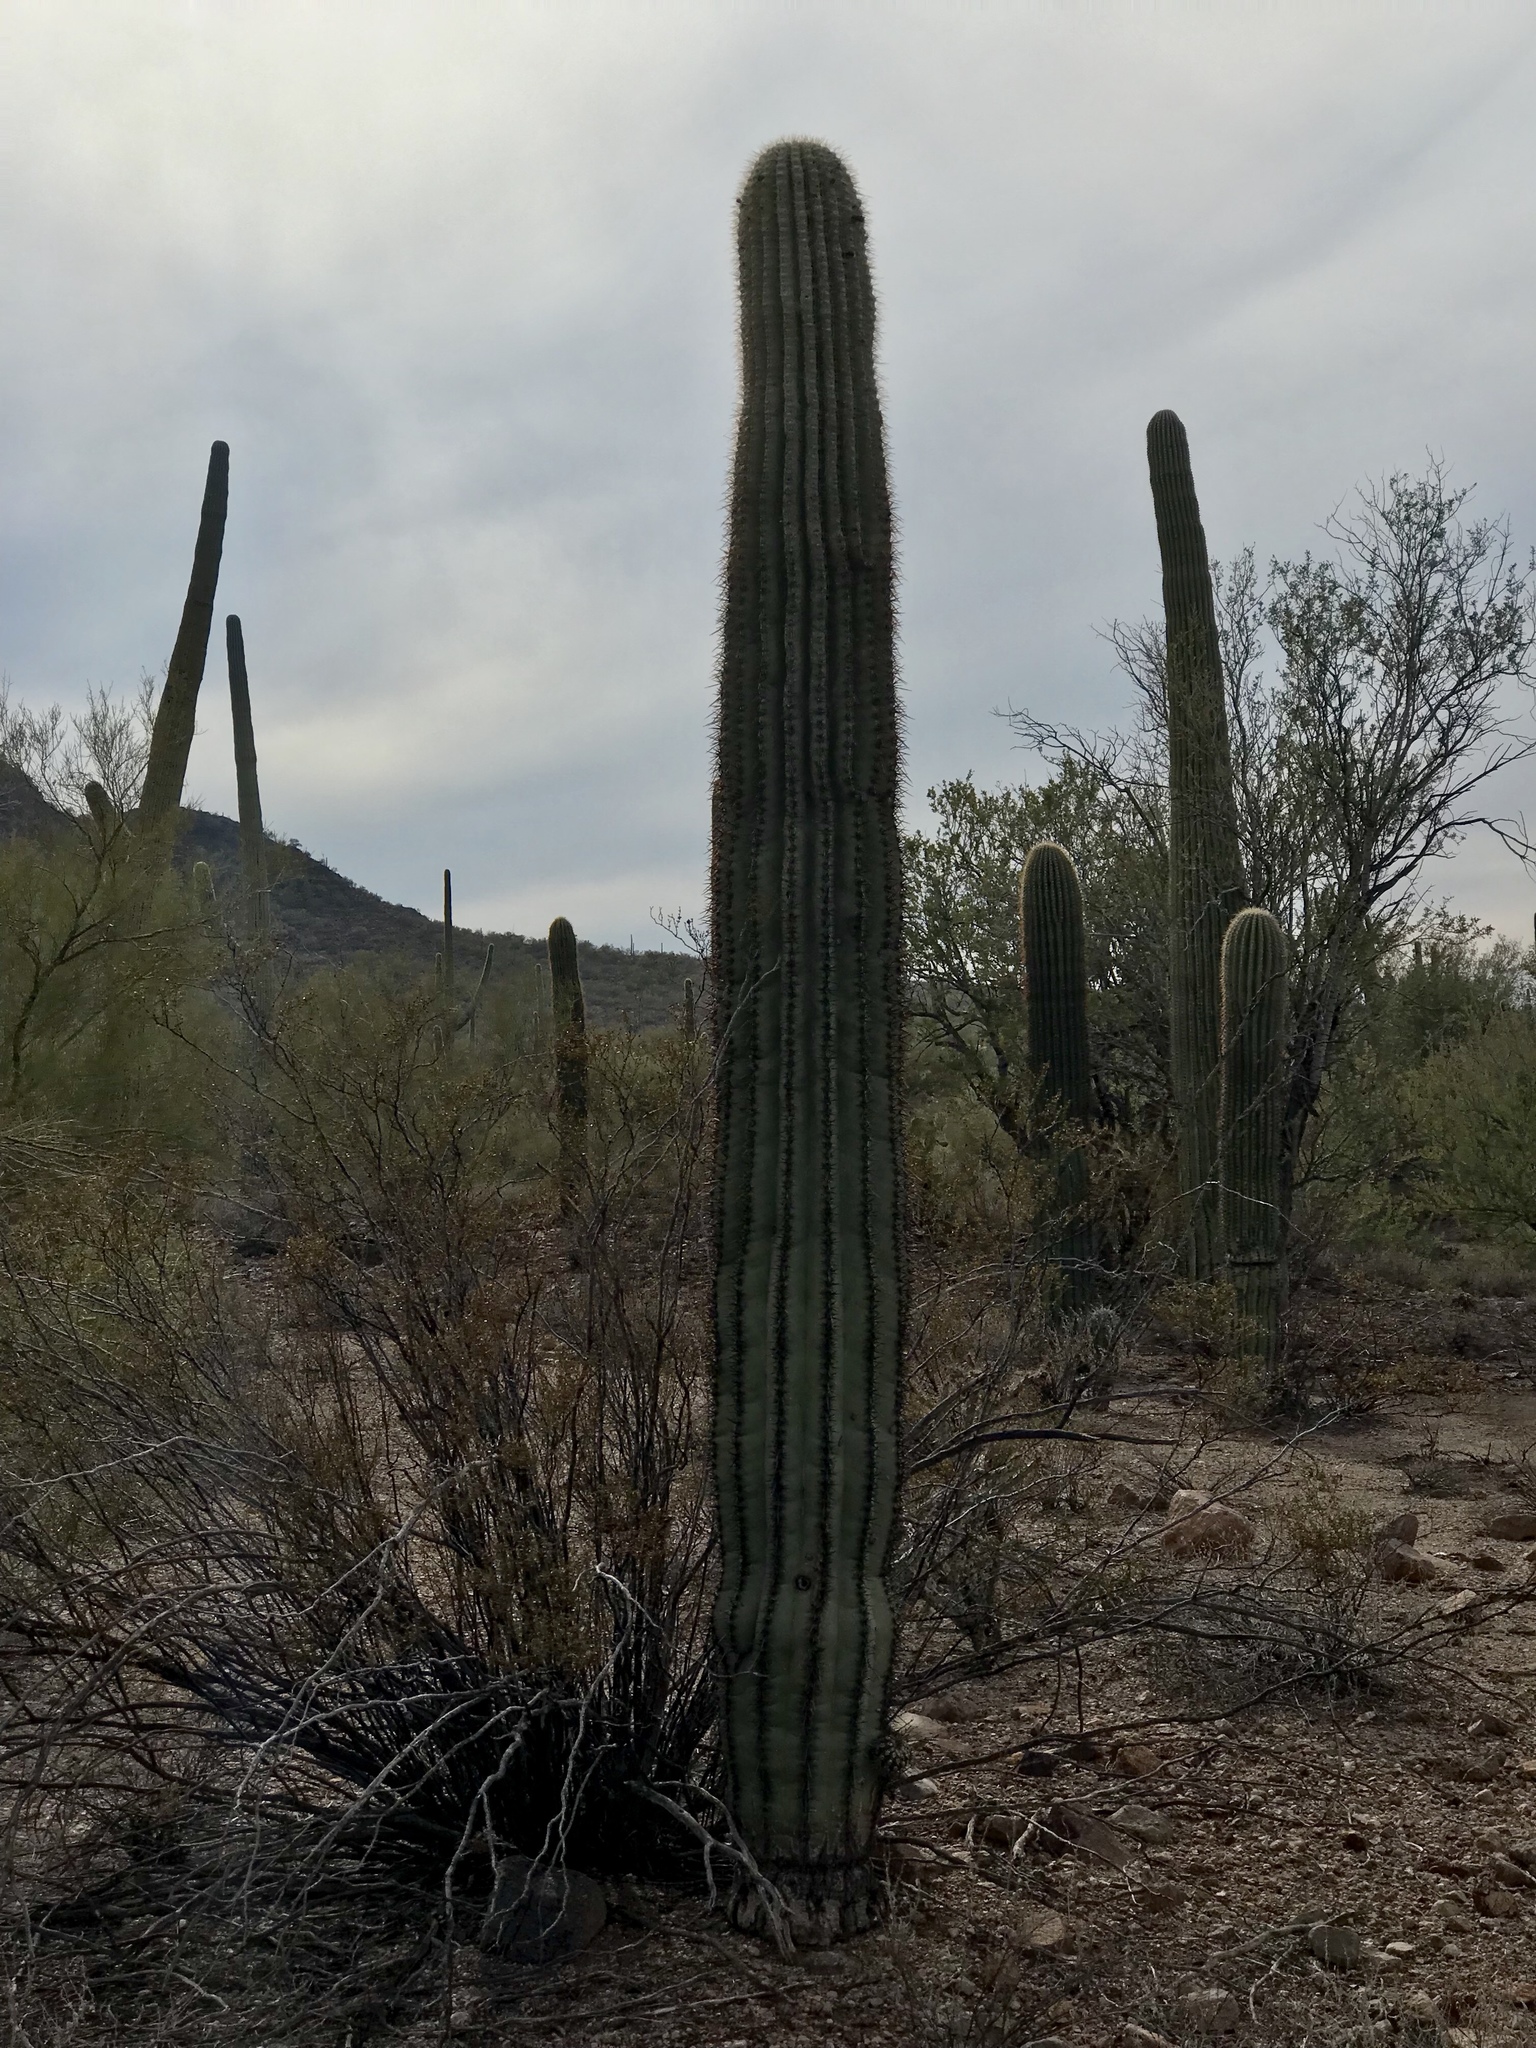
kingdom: Plantae
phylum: Tracheophyta
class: Magnoliopsida
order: Caryophyllales
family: Cactaceae
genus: Carnegiea
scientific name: Carnegiea gigantea
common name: Saguaro
